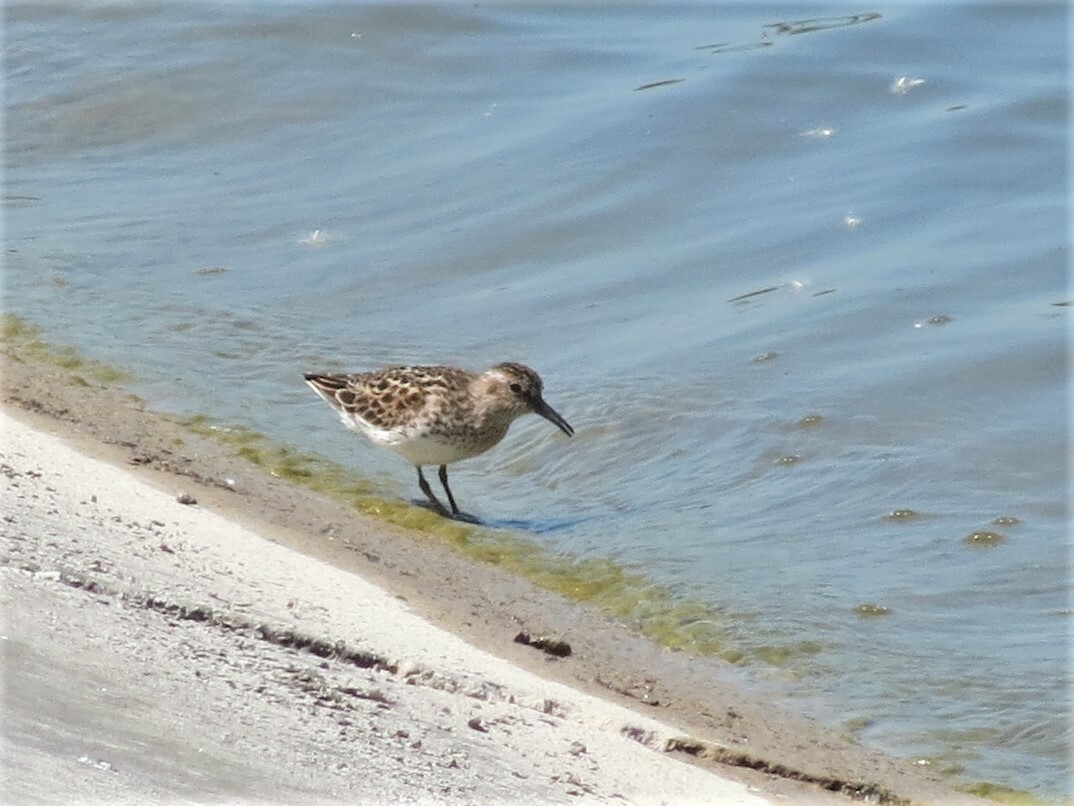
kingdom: Animalia
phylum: Chordata
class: Aves
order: Charadriiformes
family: Scolopacidae
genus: Calidris
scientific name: Calidris minutilla
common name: Least sandpiper
